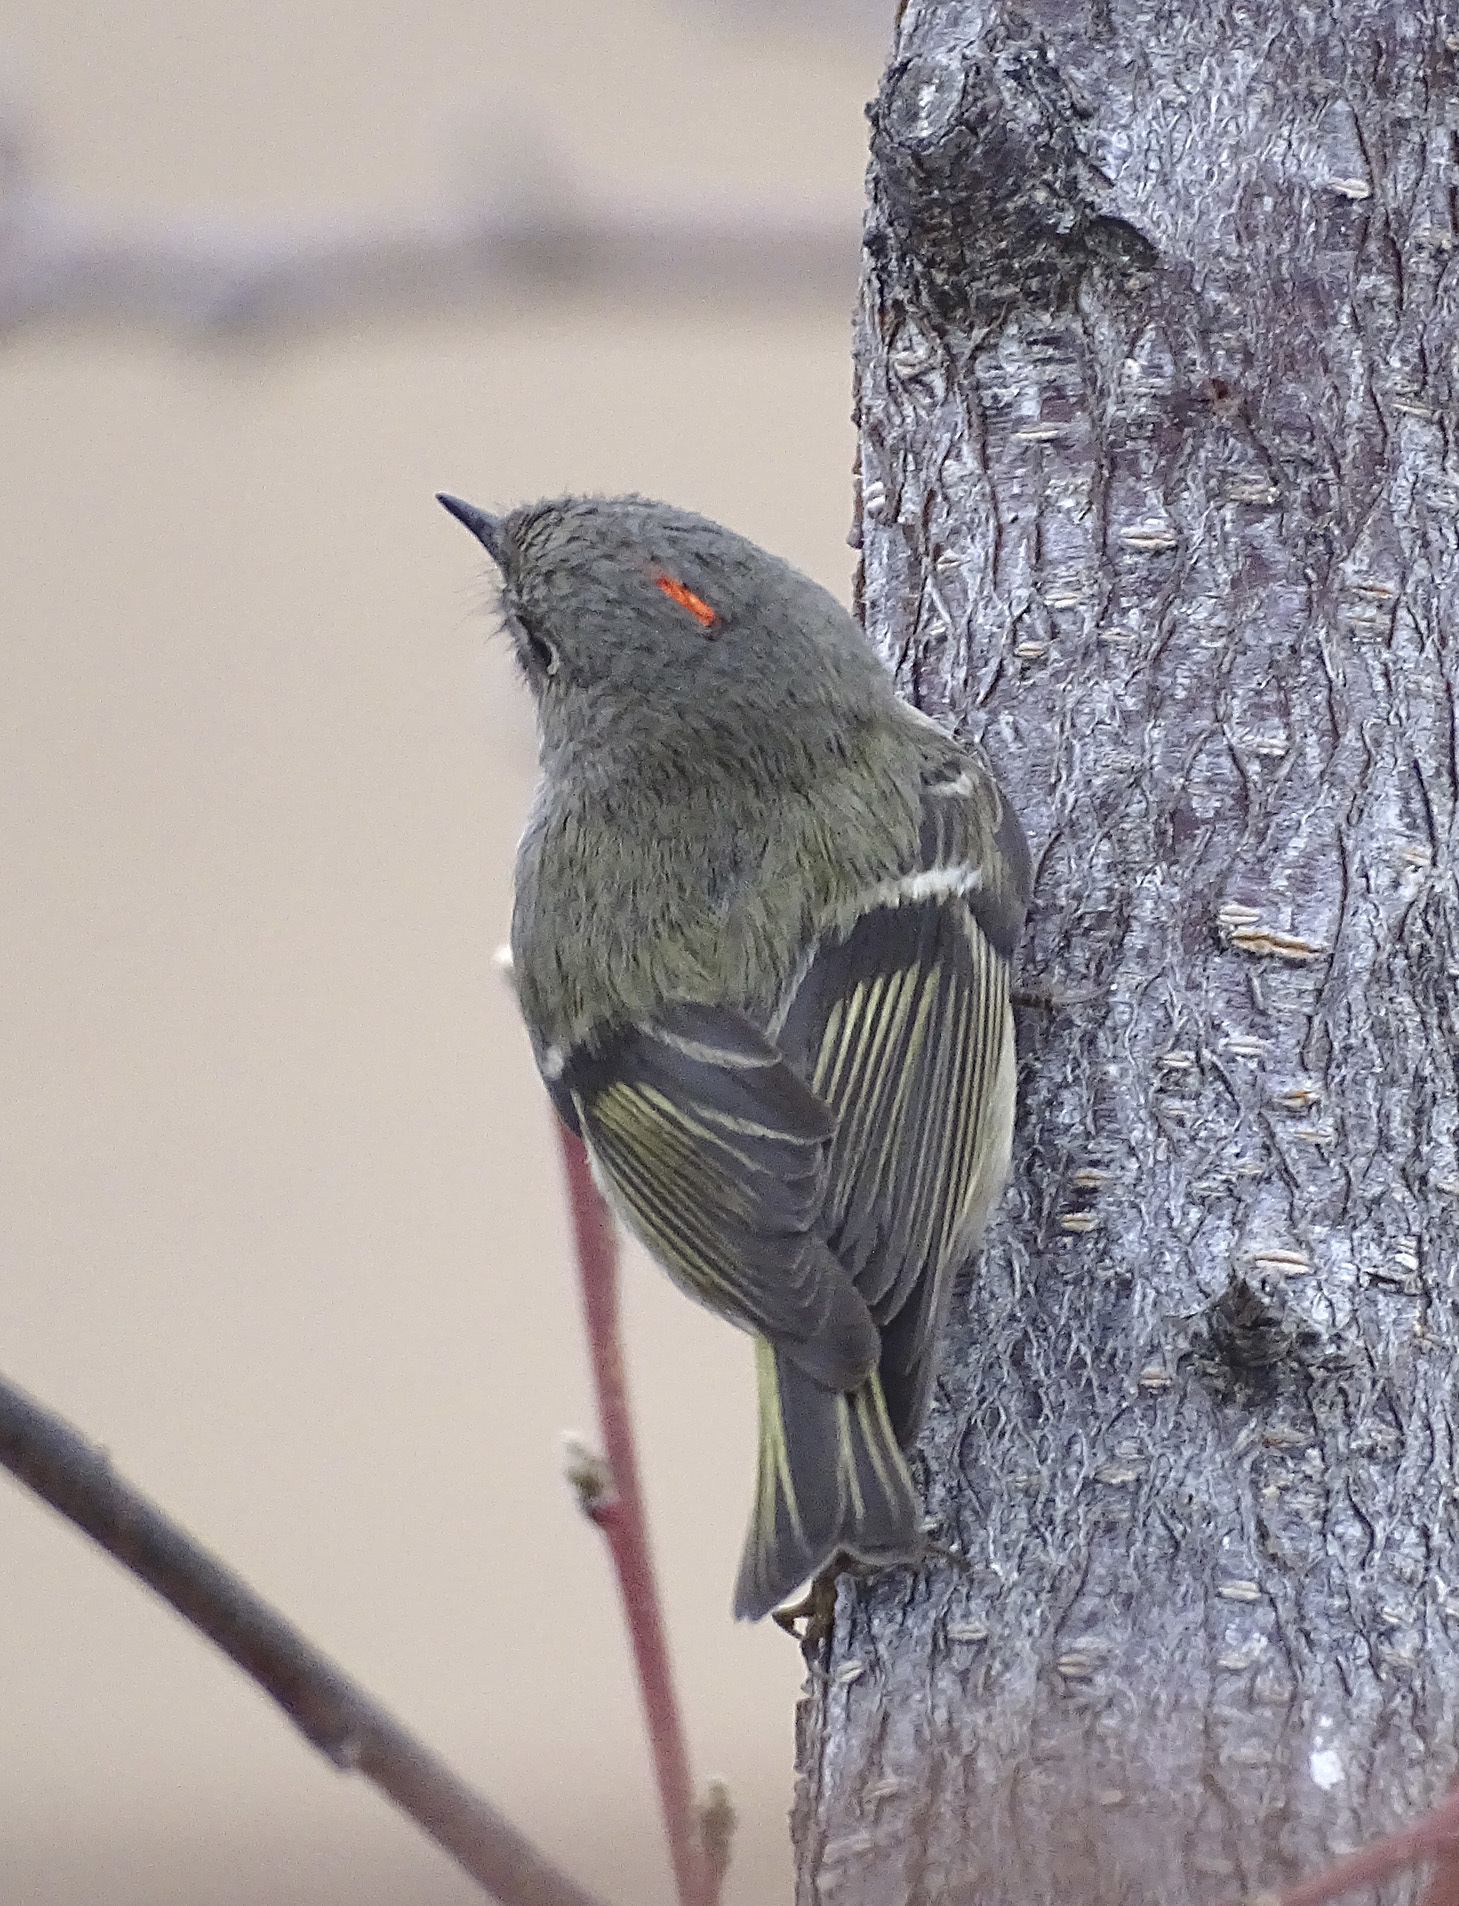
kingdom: Animalia
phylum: Chordata
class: Aves
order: Passeriformes
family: Regulidae
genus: Regulus
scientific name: Regulus calendula
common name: Ruby-crowned kinglet
